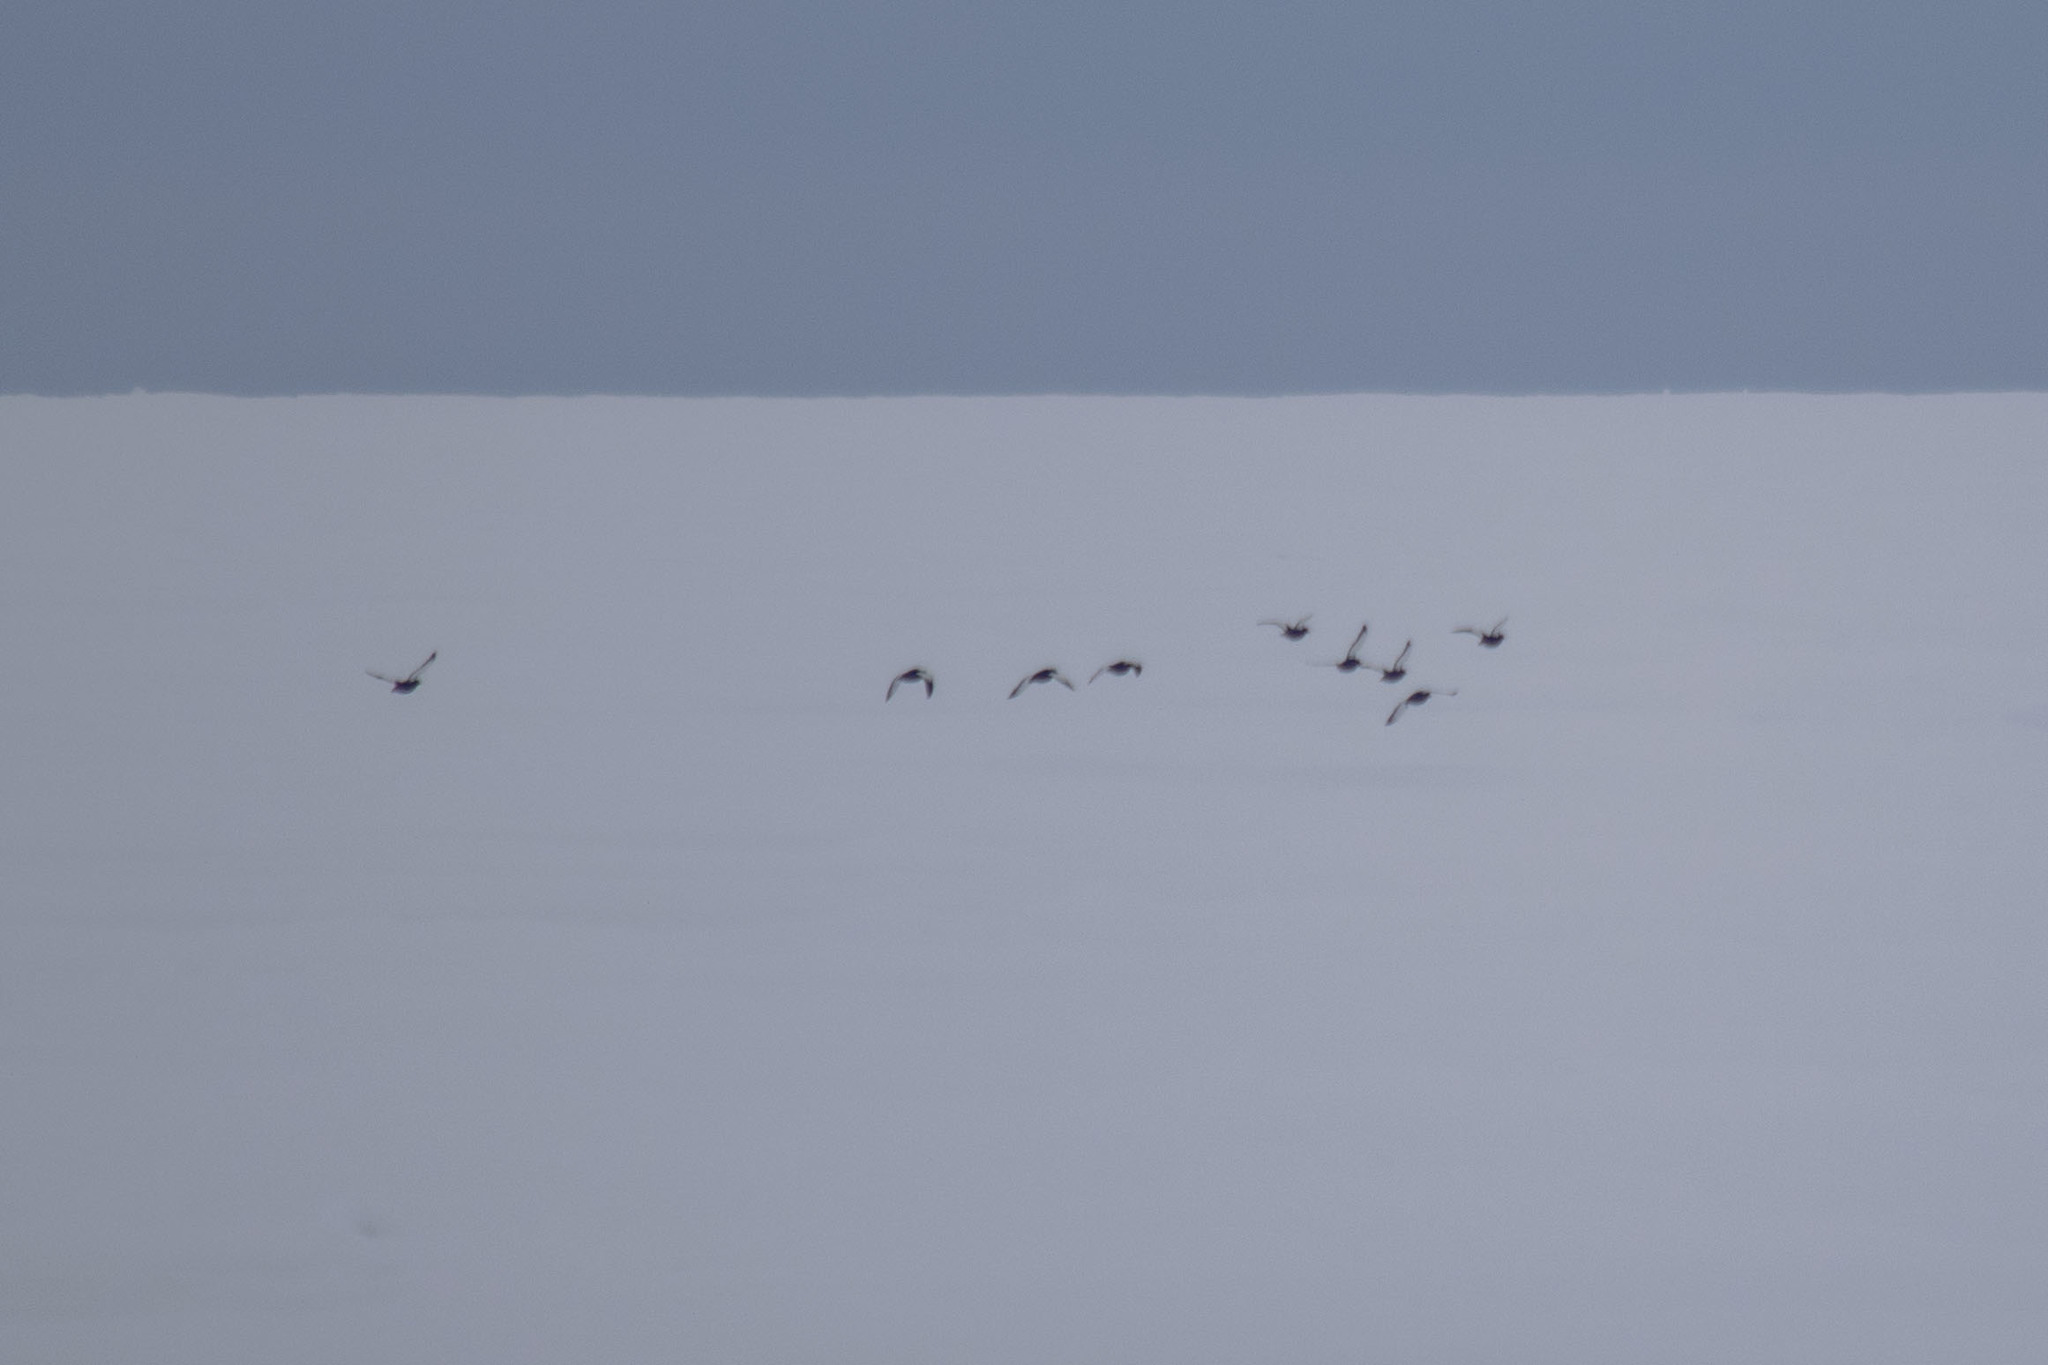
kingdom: Animalia
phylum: Chordata
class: Aves
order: Charadriiformes
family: Alcidae
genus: Cepphus
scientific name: Cepphus grylle
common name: Black guillemot
